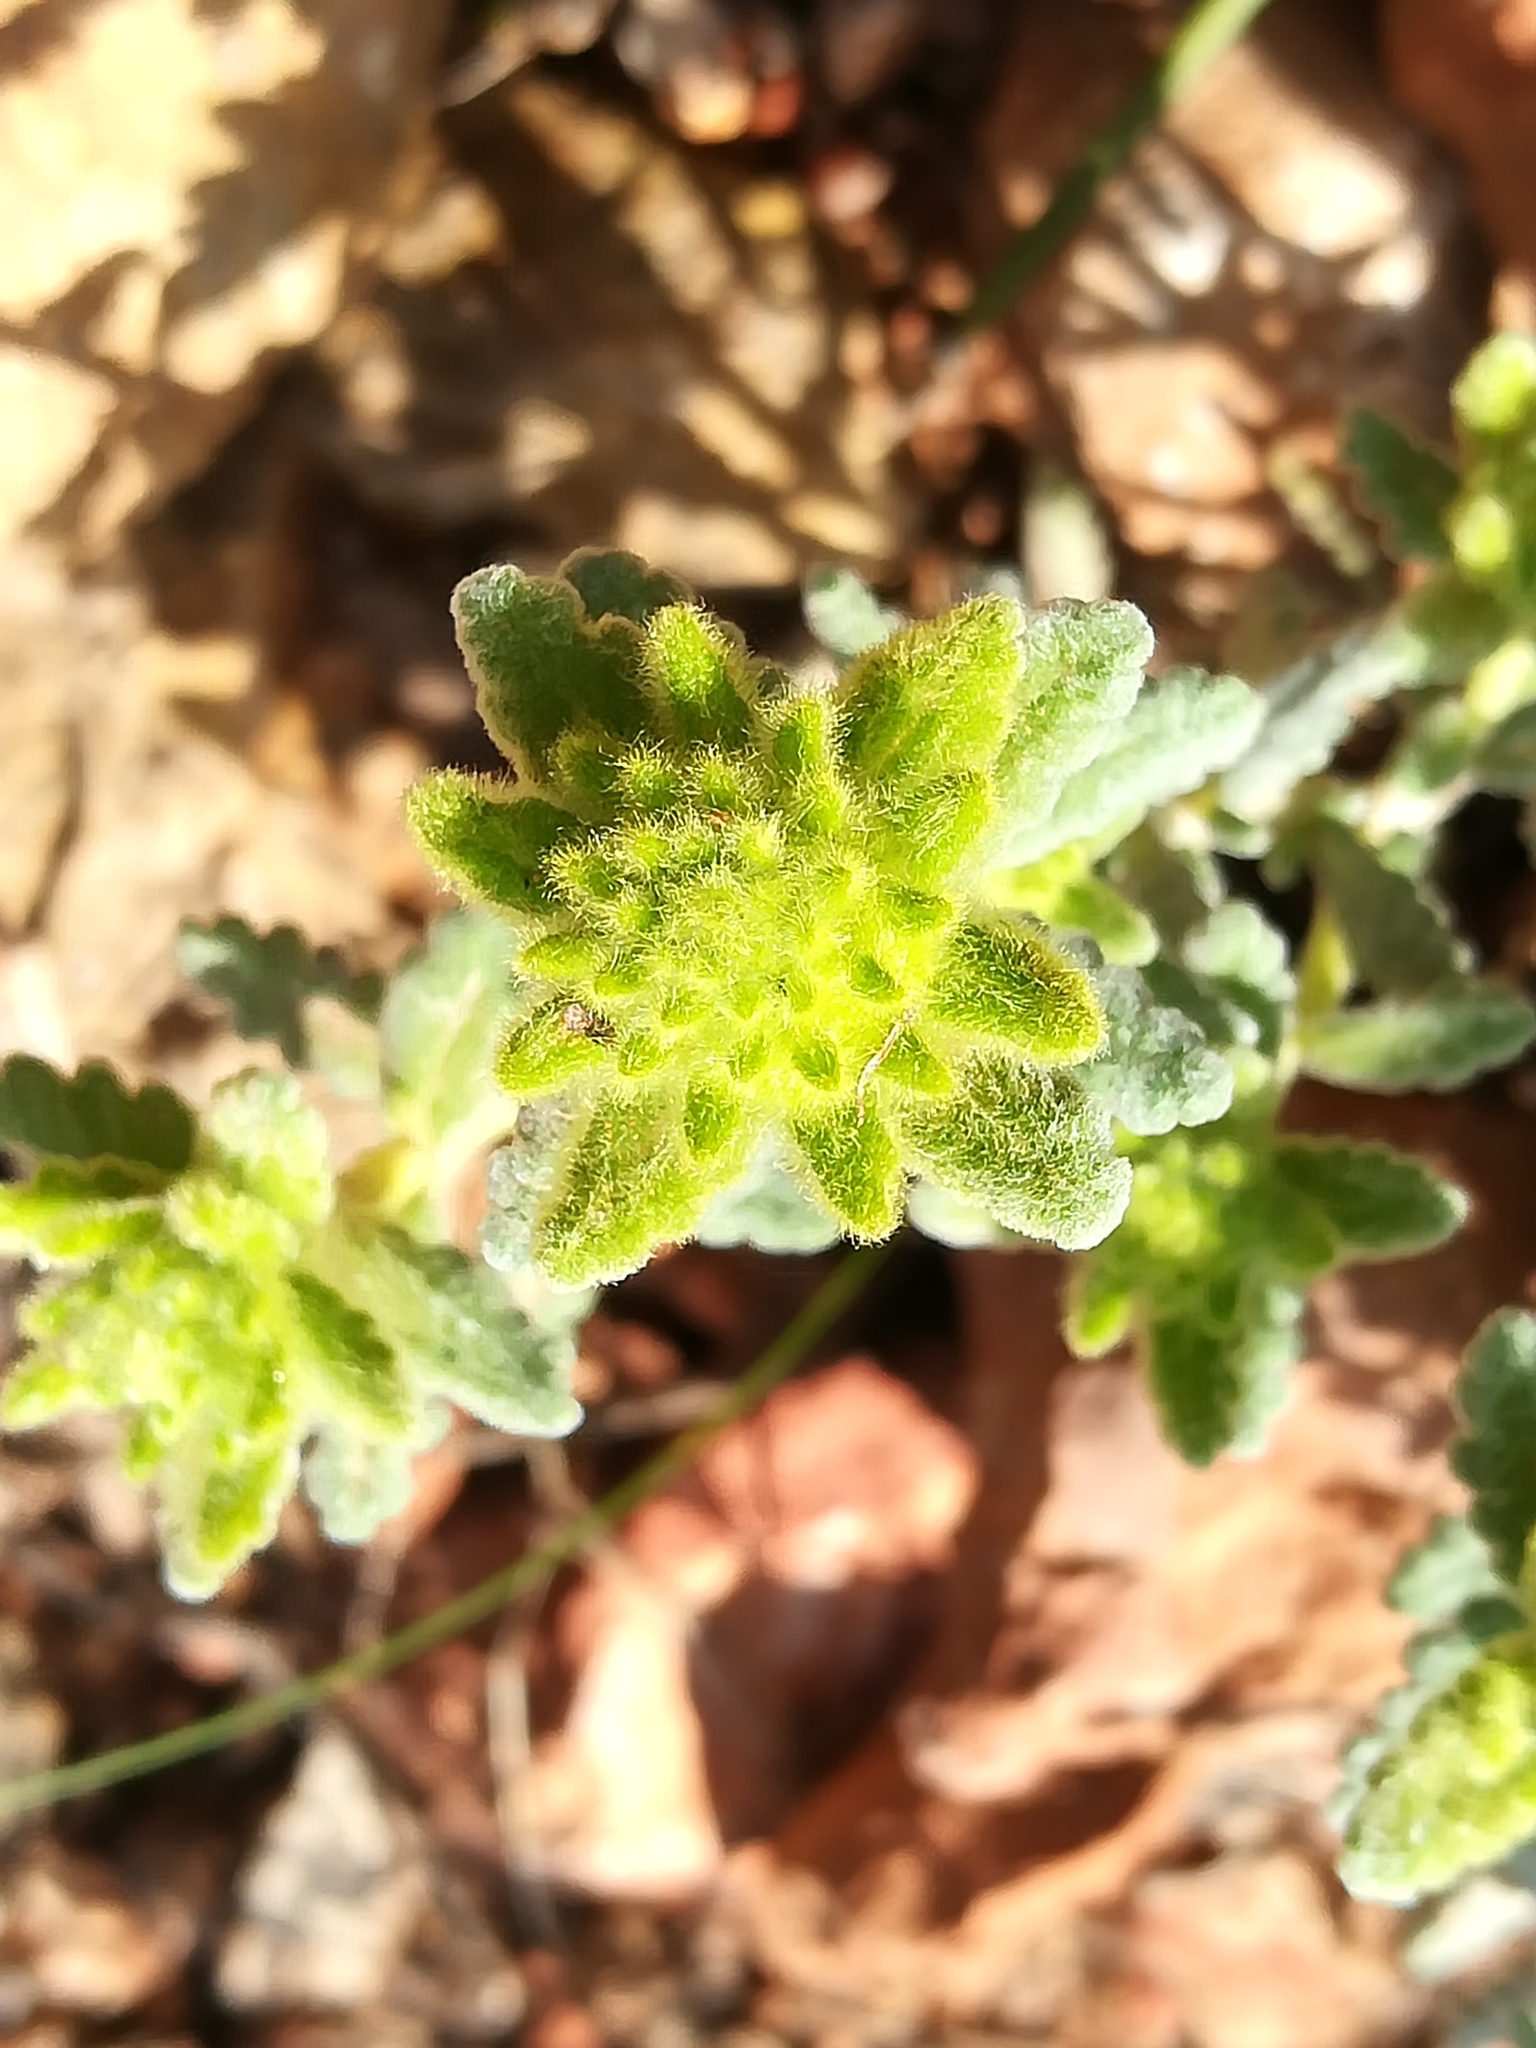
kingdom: Plantae
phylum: Tracheophyta
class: Magnoliopsida
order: Lamiales
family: Lamiaceae
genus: Teucrium
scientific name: Teucrium aureum
